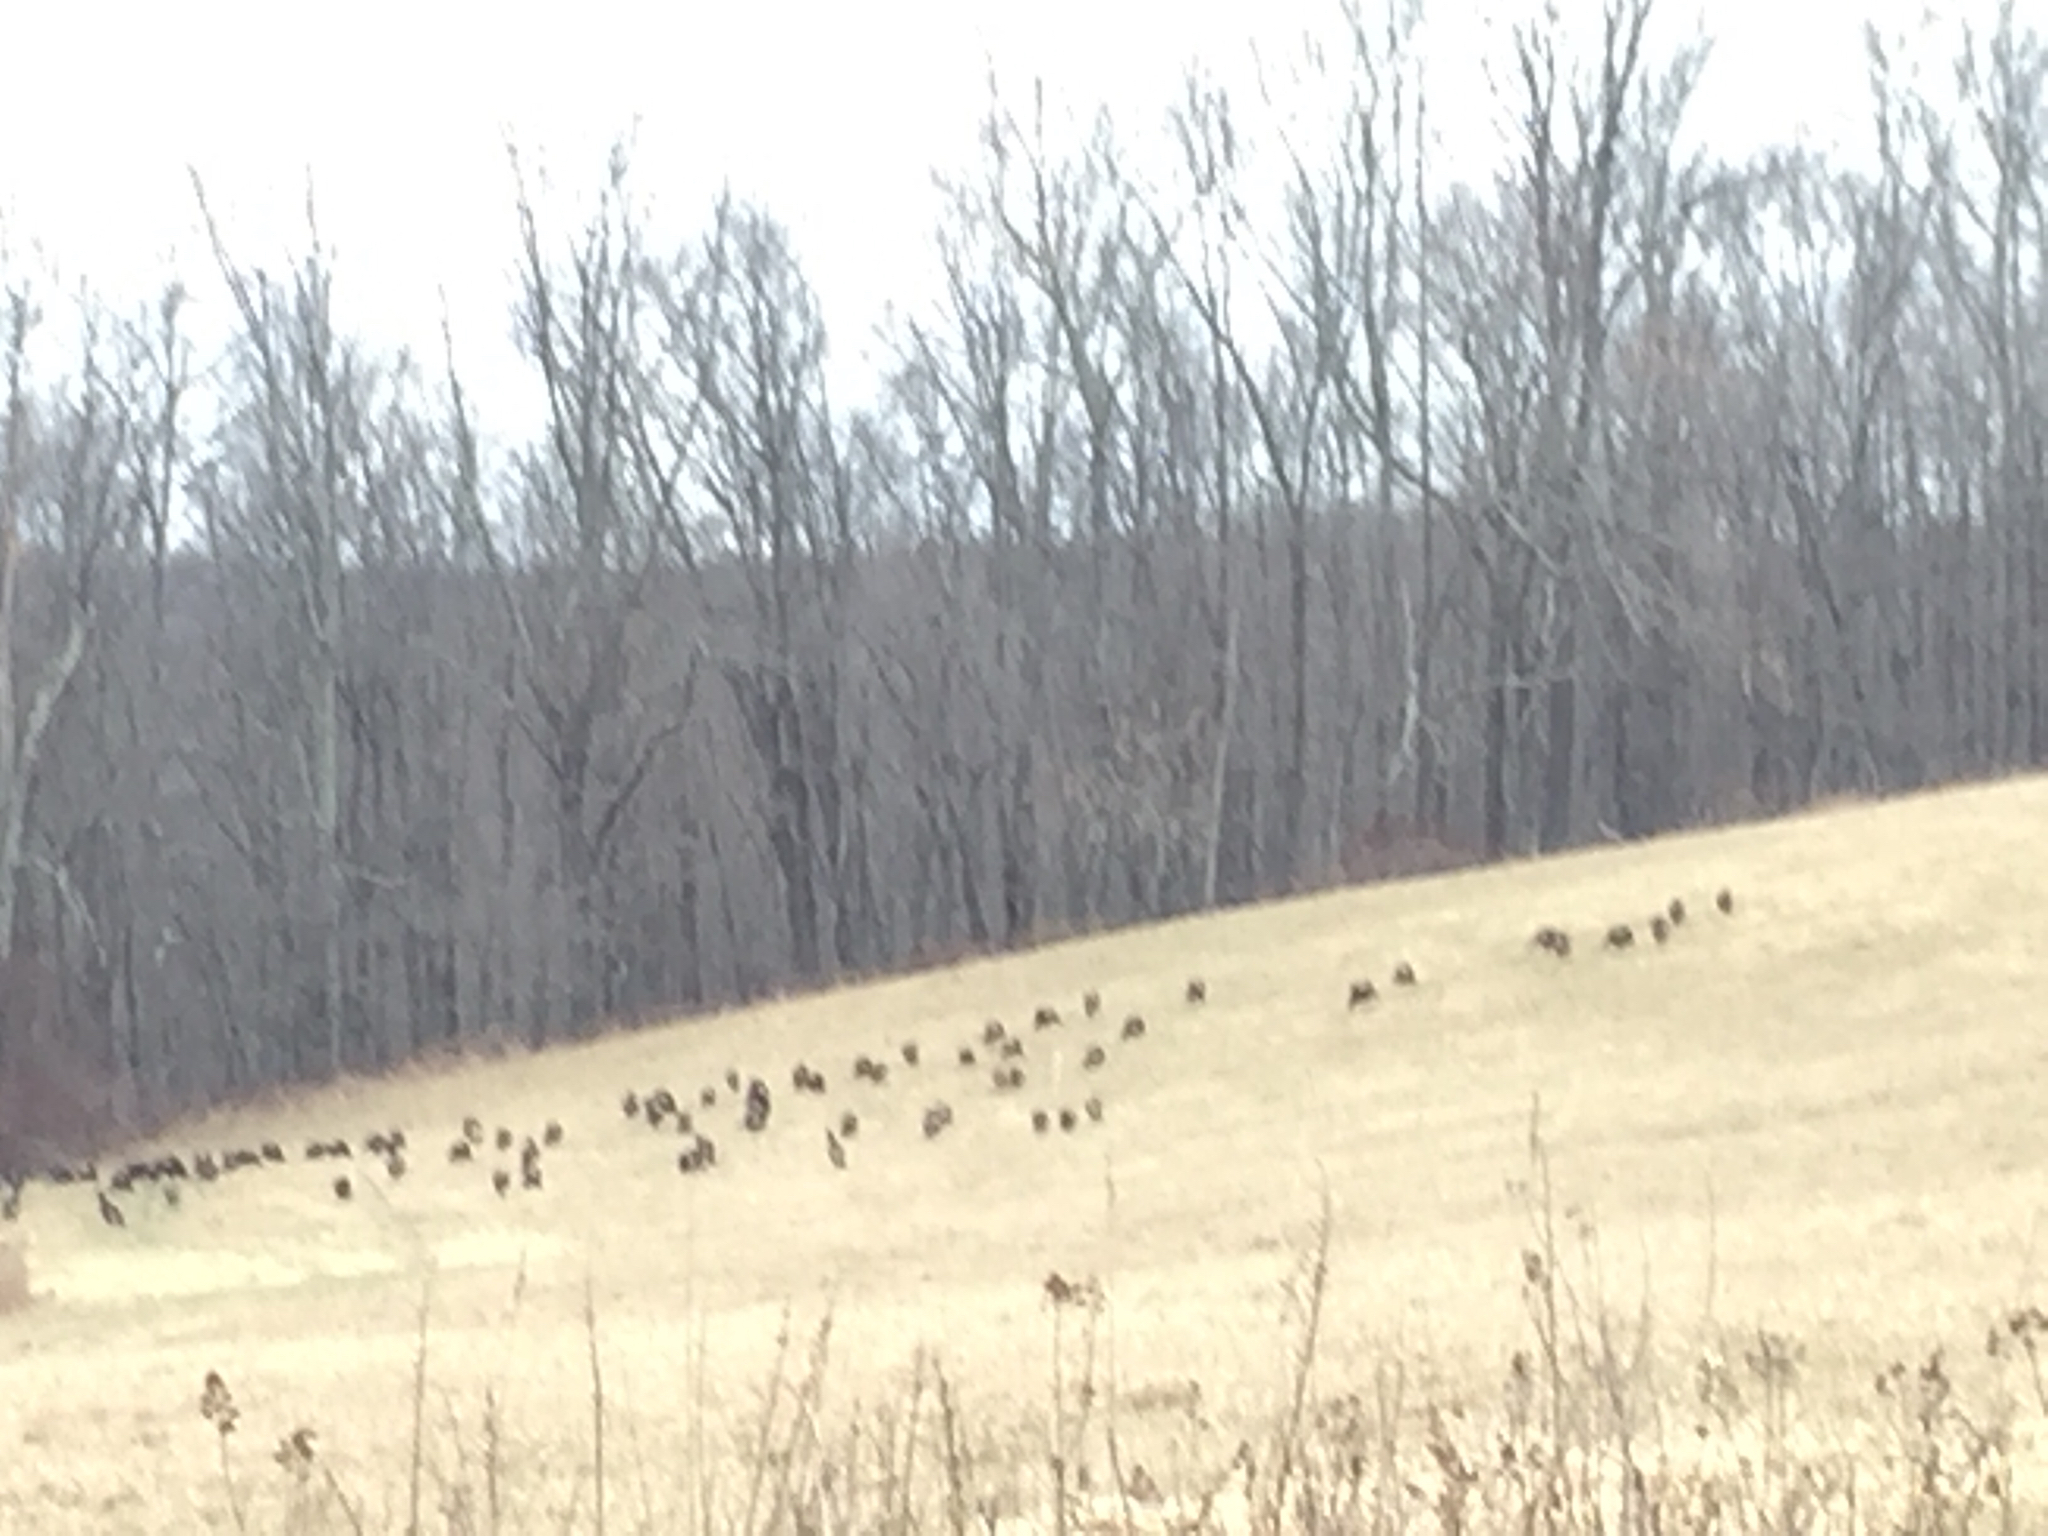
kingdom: Animalia
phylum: Chordata
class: Aves
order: Galliformes
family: Phasianidae
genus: Meleagris
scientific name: Meleagris gallopavo
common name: Wild turkey
